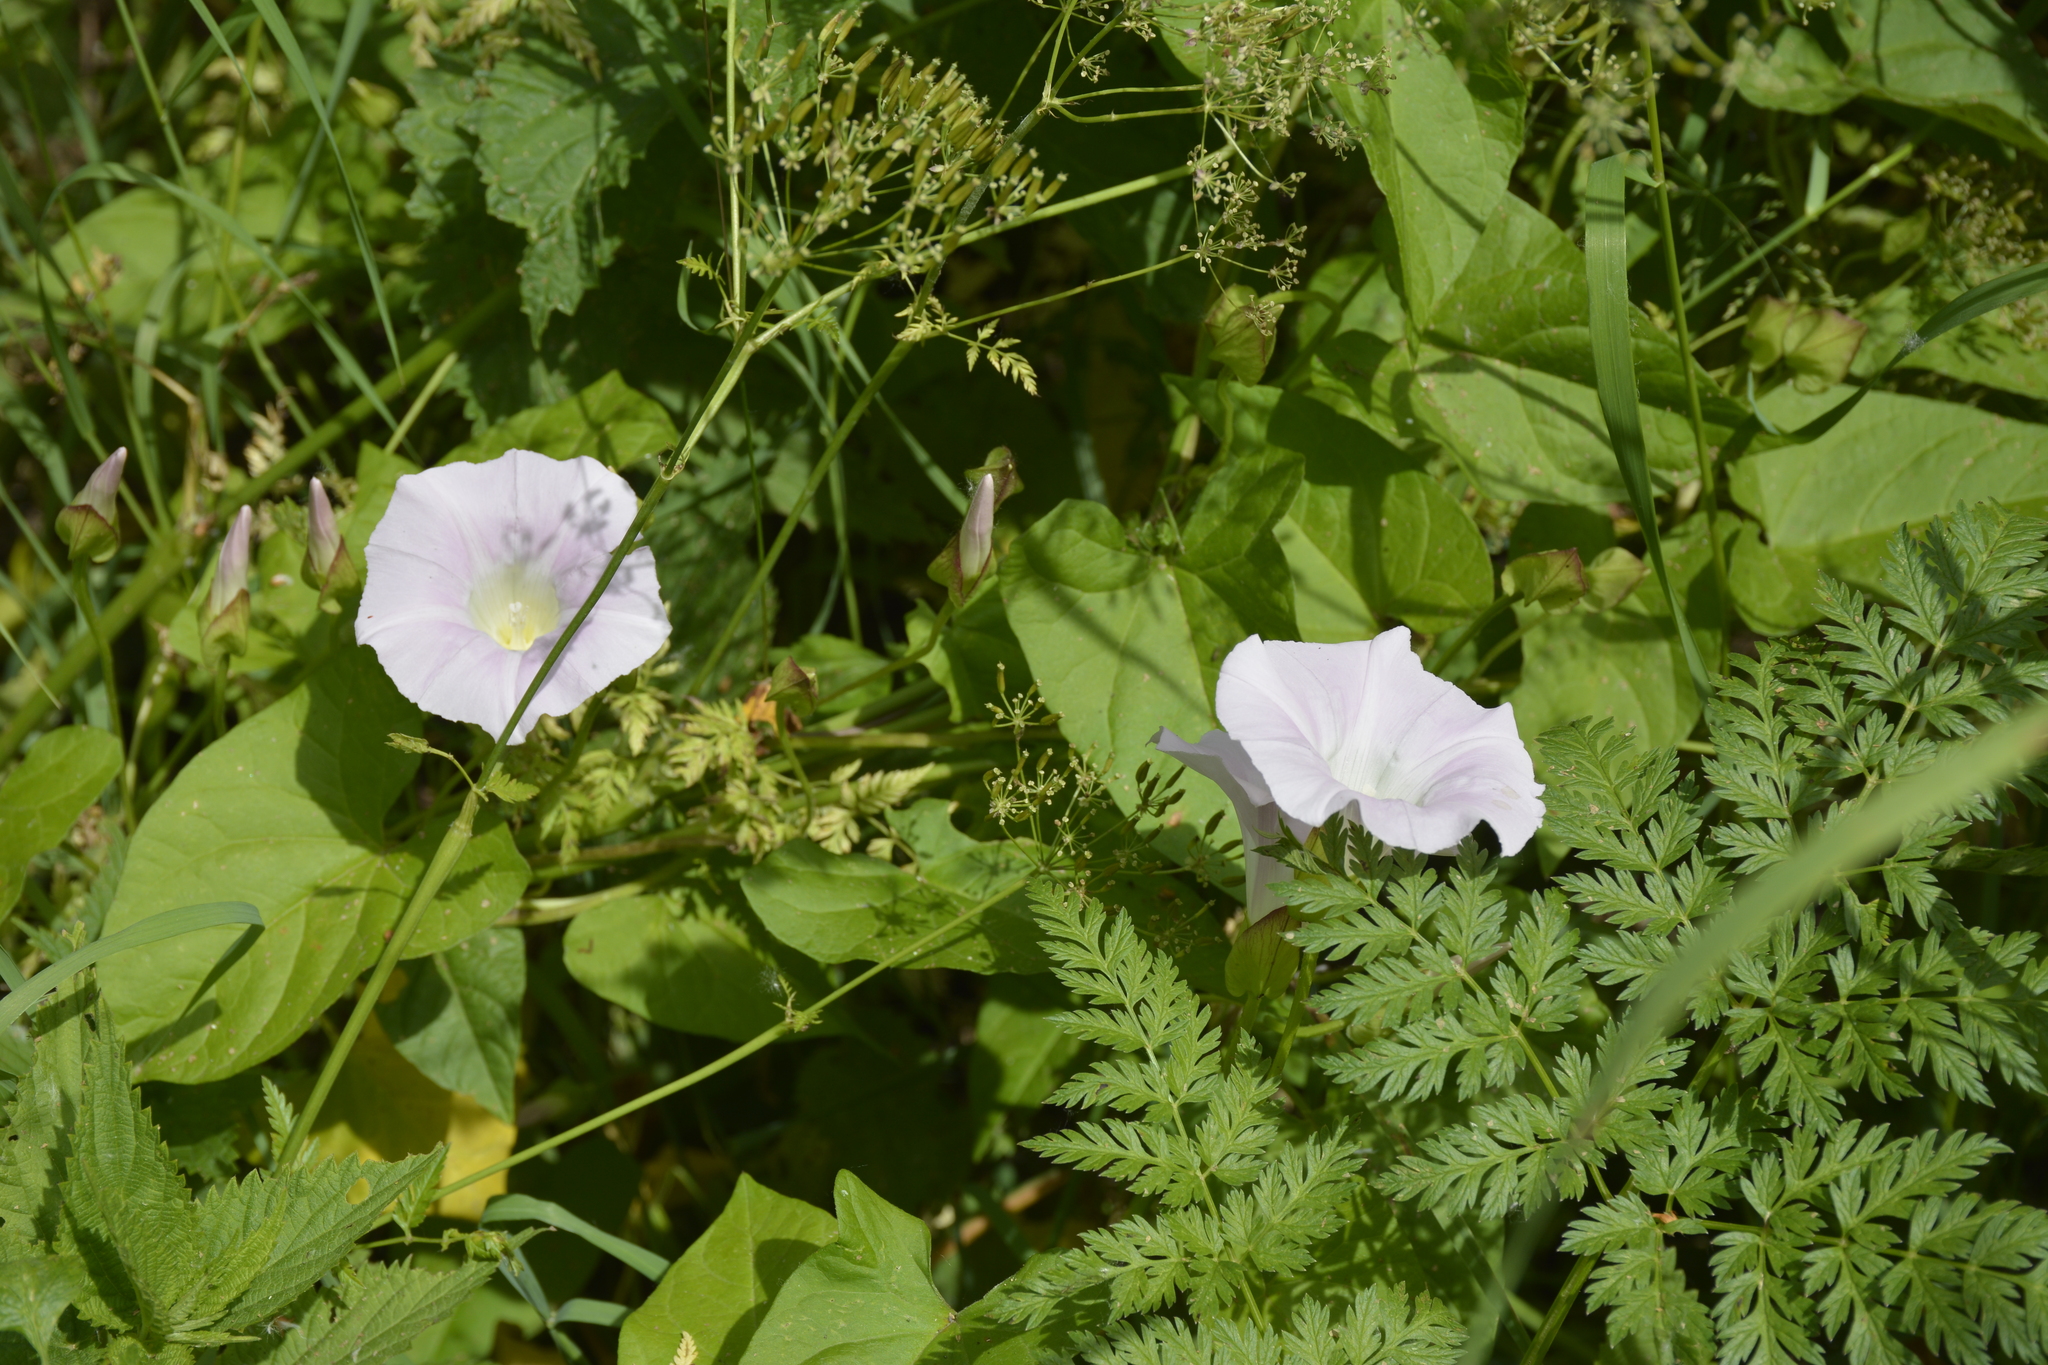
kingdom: Plantae
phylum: Tracheophyta
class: Magnoliopsida
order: Solanales
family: Convolvulaceae
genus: Calystegia
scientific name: Calystegia sepium
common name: Hedge bindweed
